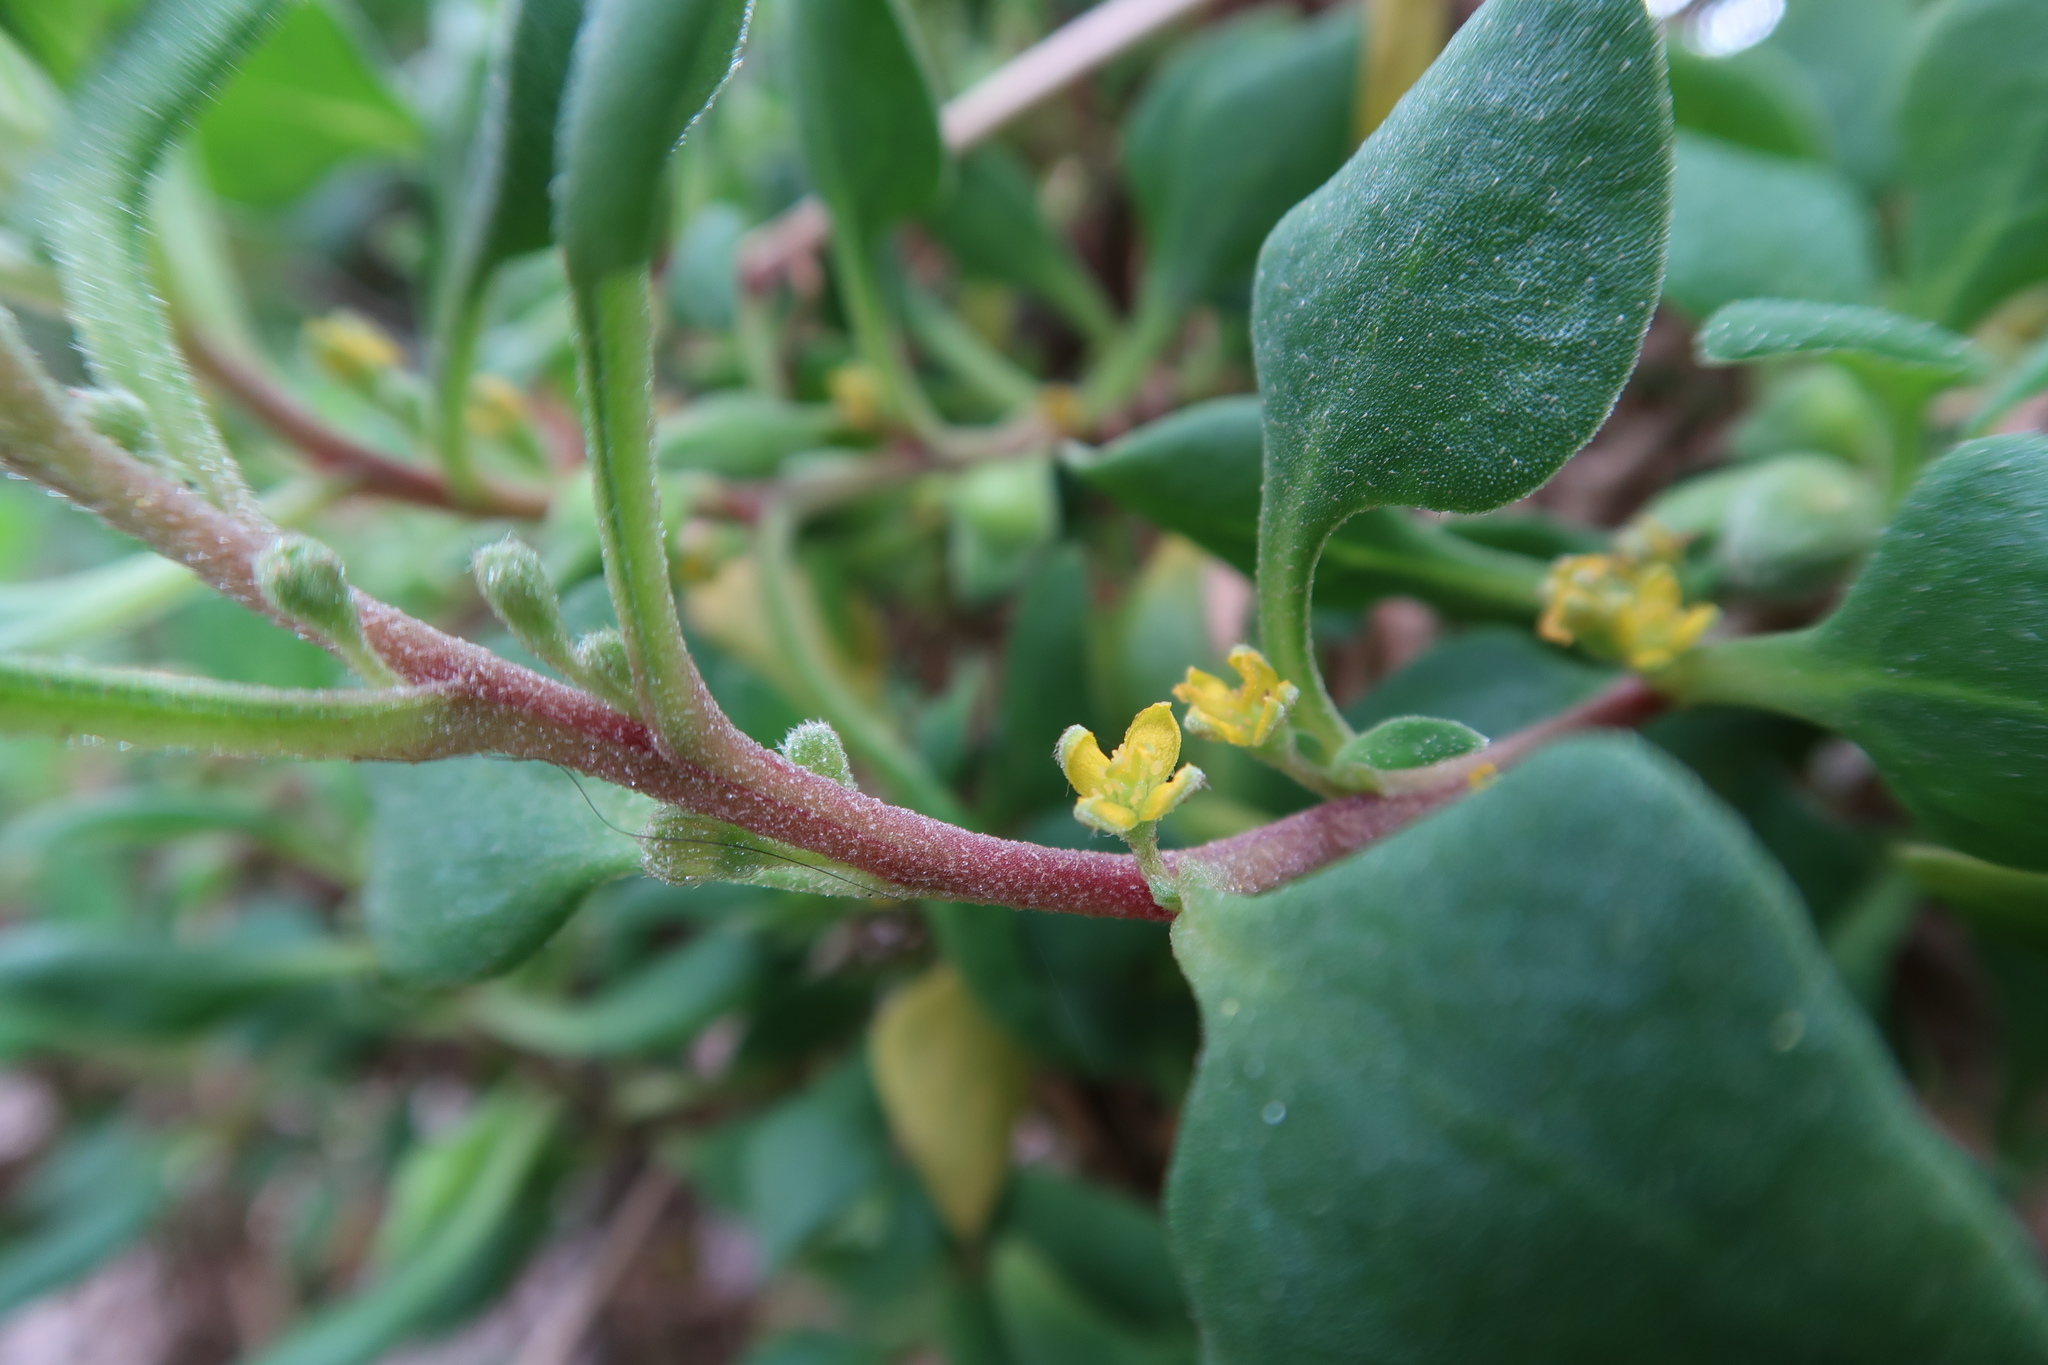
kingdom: Plantae
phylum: Tracheophyta
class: Magnoliopsida
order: Caryophyllales
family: Aizoaceae
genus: Tetragonia
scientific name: Tetragonia implexicoma
